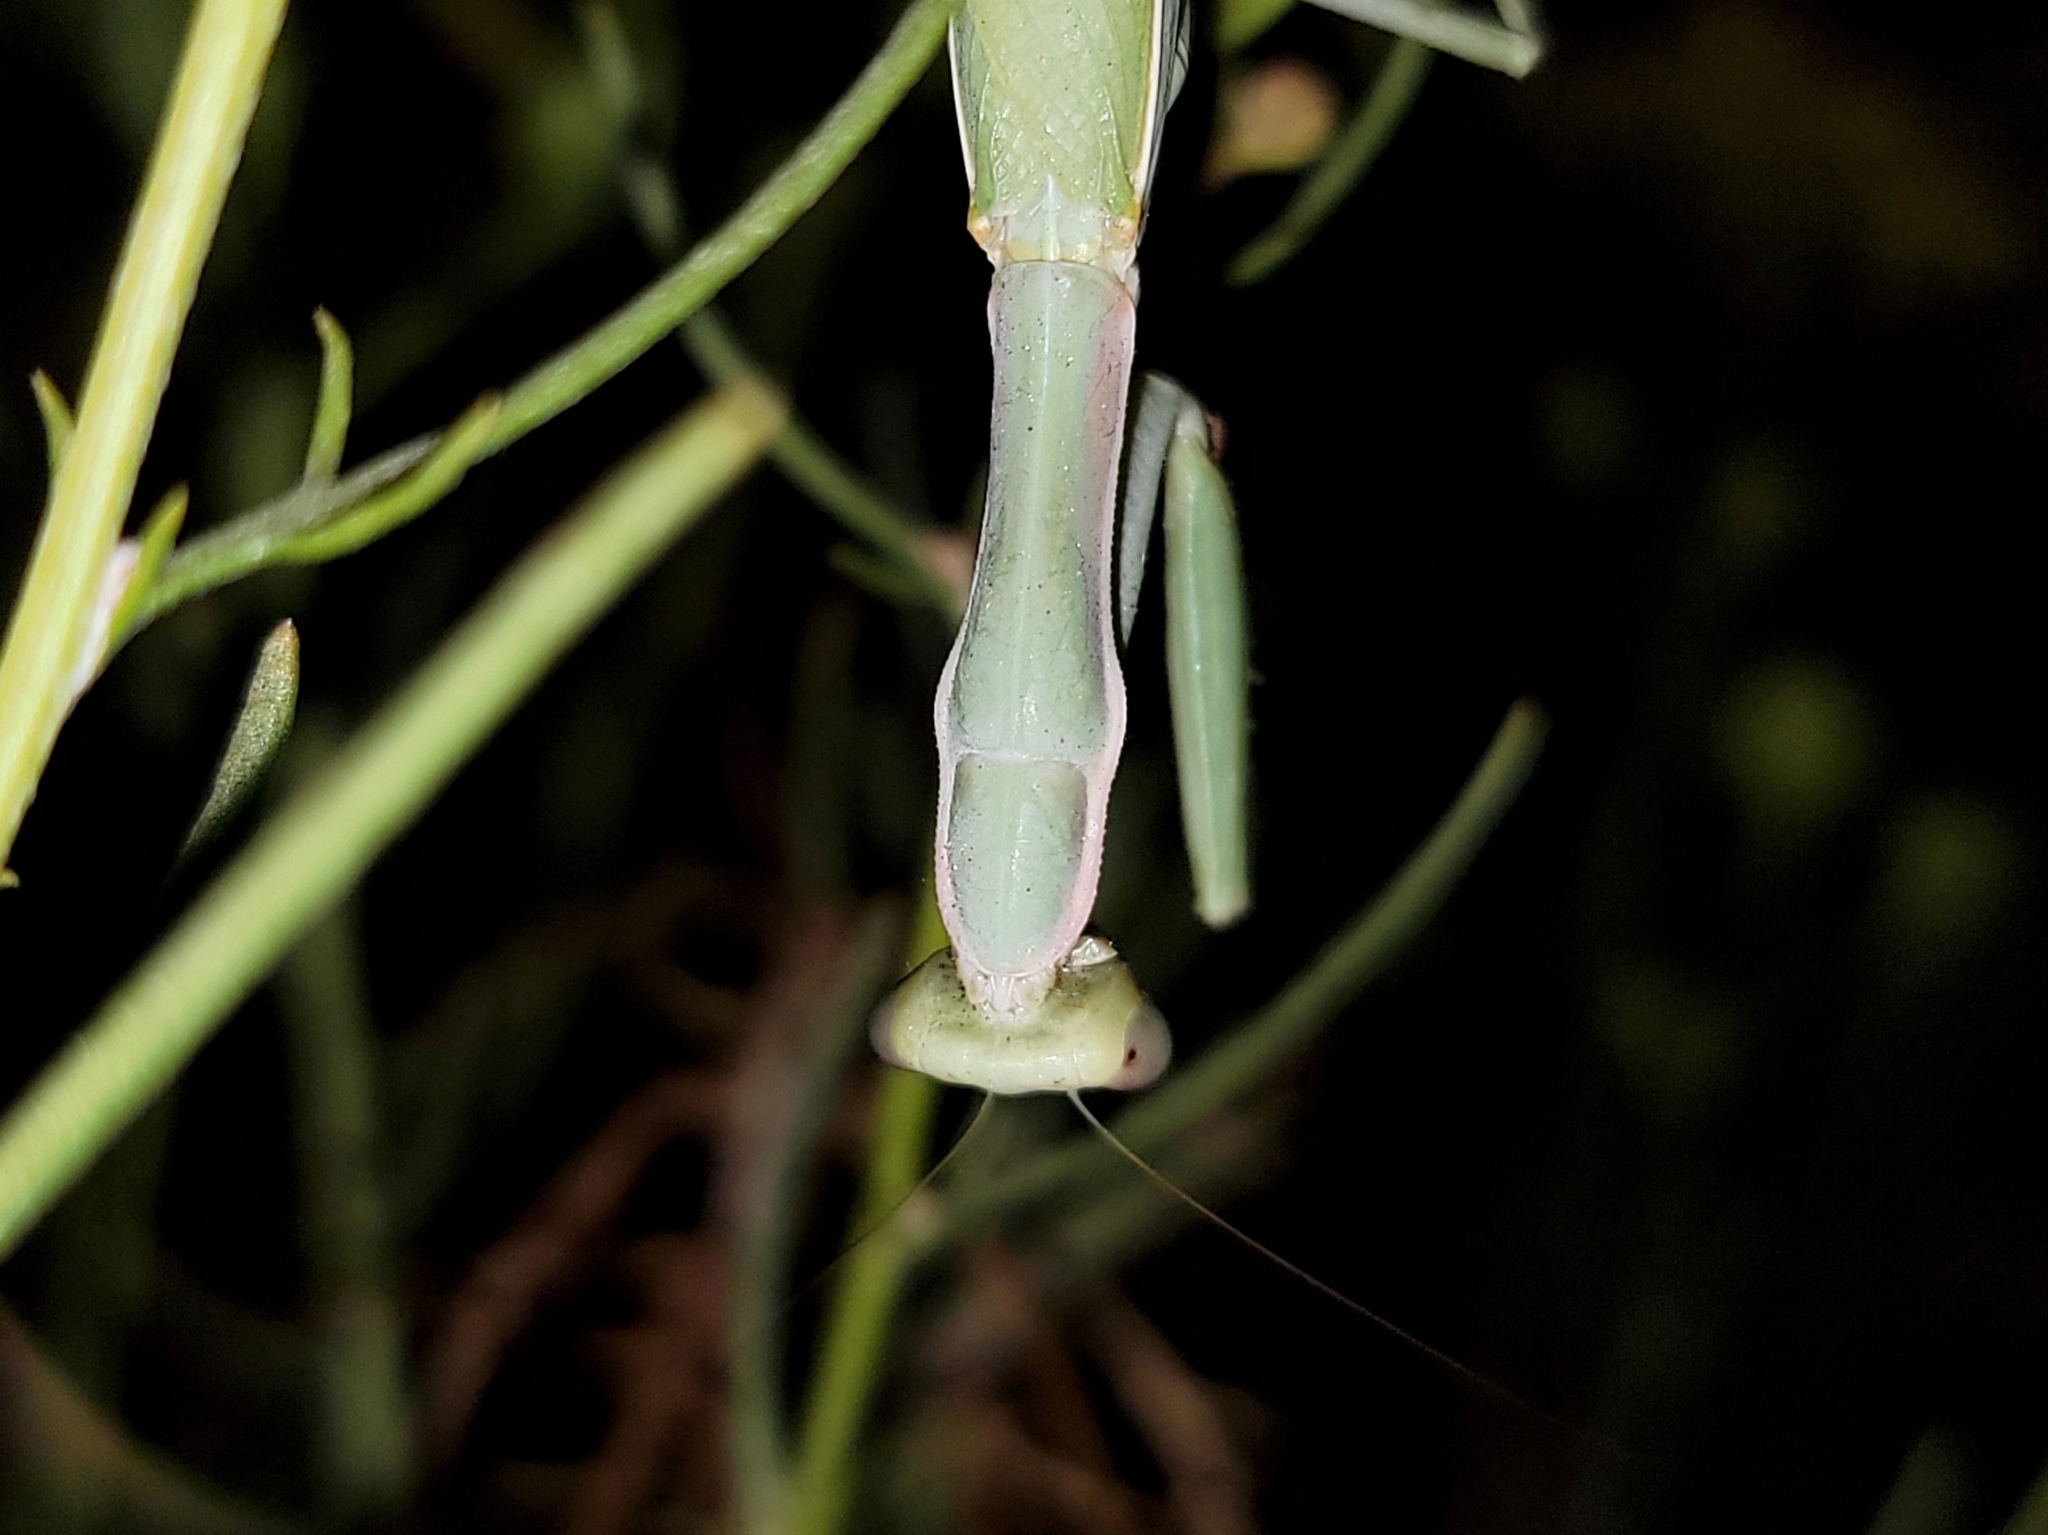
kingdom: Animalia
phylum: Arthropoda
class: Insecta
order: Mantodea
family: Eremiaphilidae
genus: Iris
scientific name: Iris oratoria
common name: Mediterranean mantis
